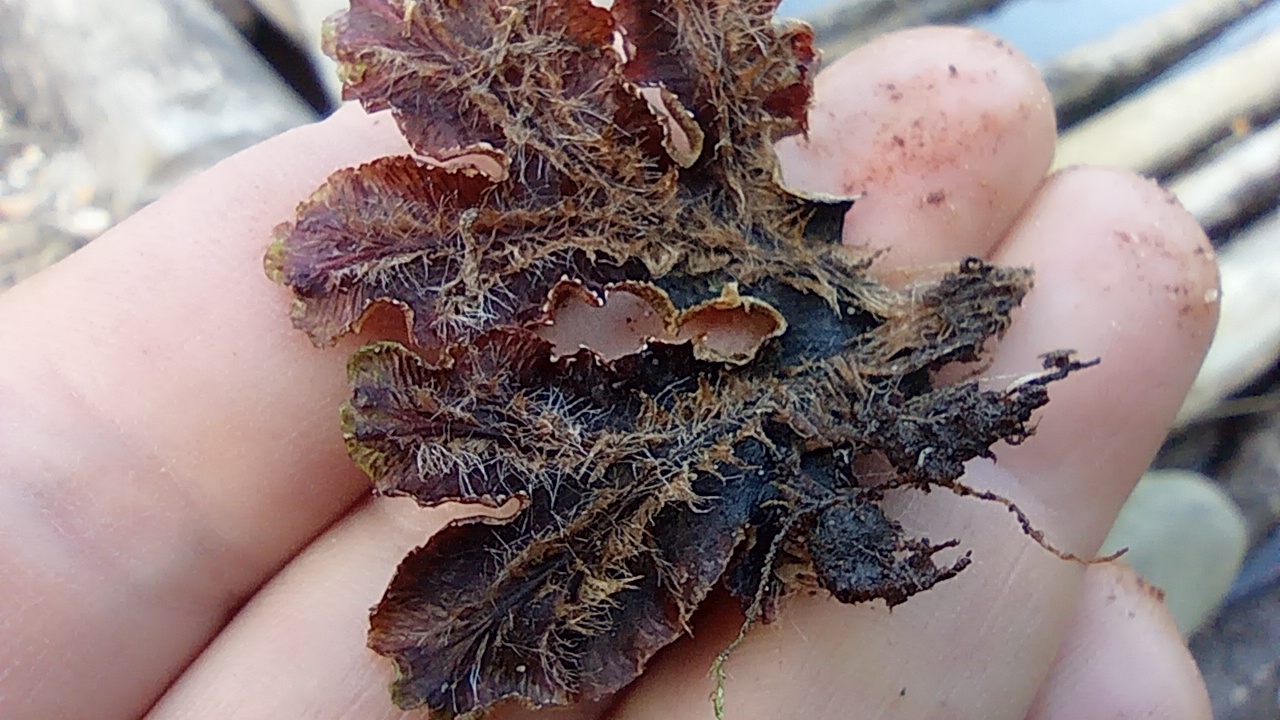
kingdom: Plantae
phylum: Marchantiophyta
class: Marchantiopsida
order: Marchantiales
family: Marchantiaceae
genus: Marchantia
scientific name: Marchantia polymorpha
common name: Common liverwort
